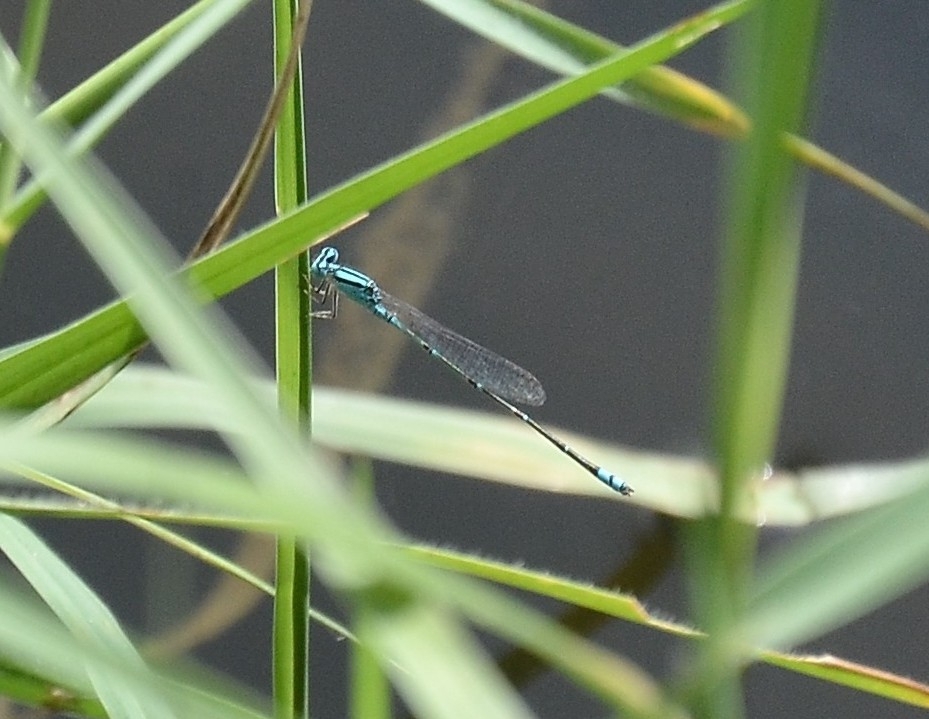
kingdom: Animalia
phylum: Arthropoda
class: Insecta
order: Odonata
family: Coenagrionidae
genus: Pseudagrion
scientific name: Pseudagrion microcephalum
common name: Blue riverdamsel
